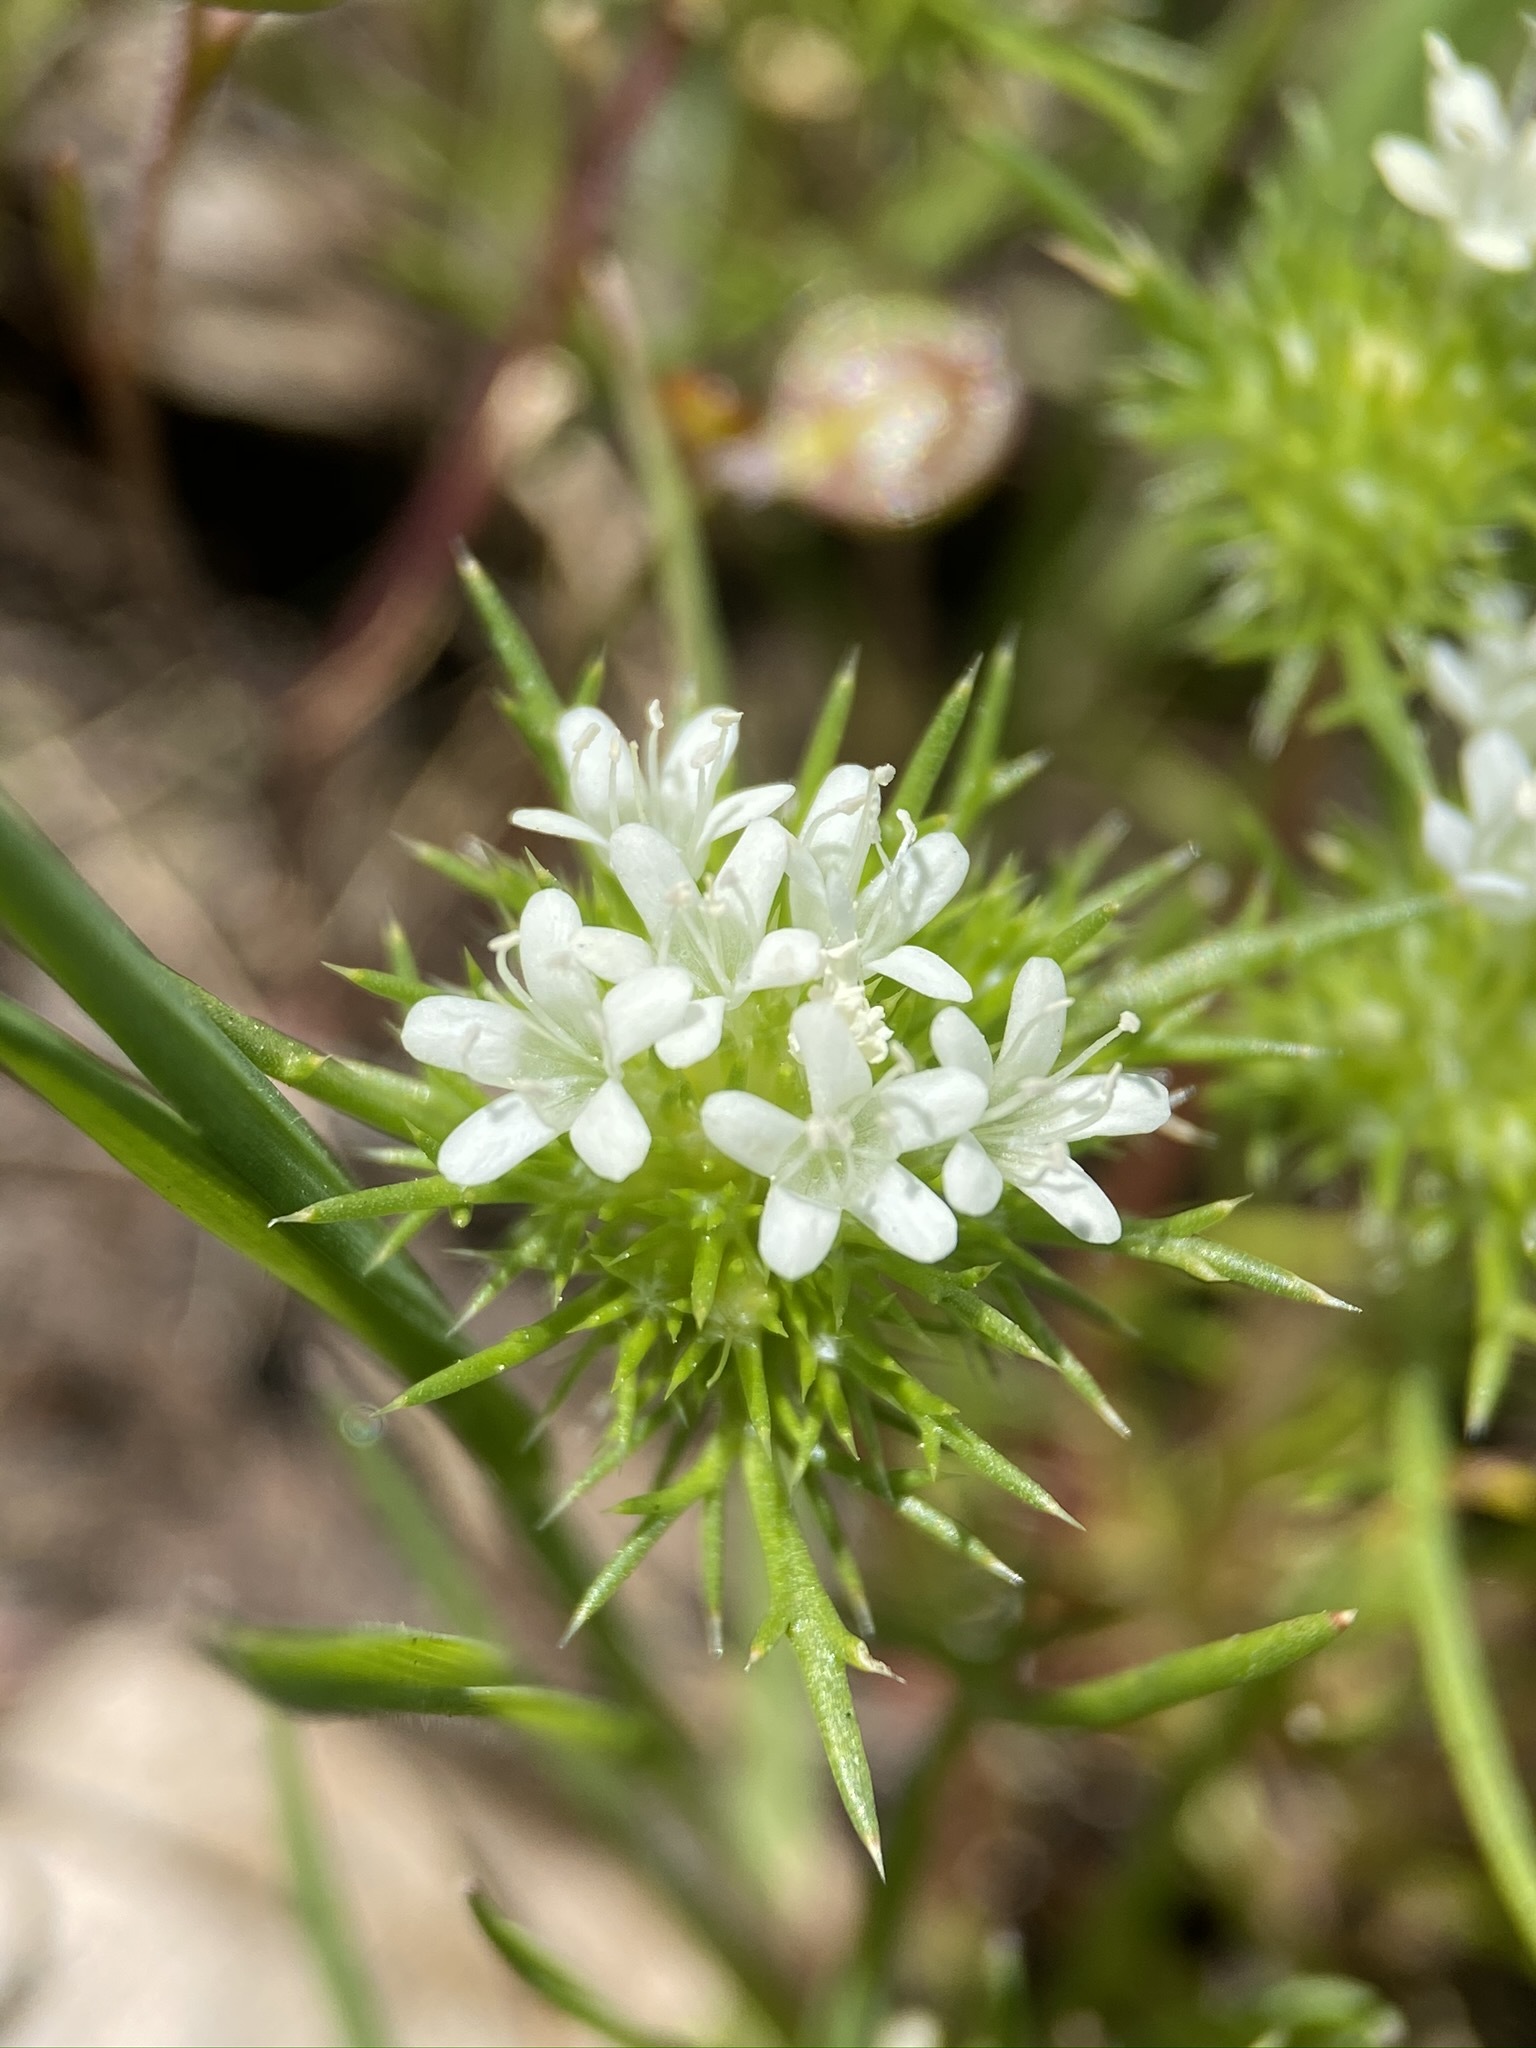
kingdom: Plantae
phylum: Tracheophyta
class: Magnoliopsida
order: Ericales
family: Polemoniaceae
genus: Navarretia
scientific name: Navarretia leucocephala
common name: White-flowered navarretia
